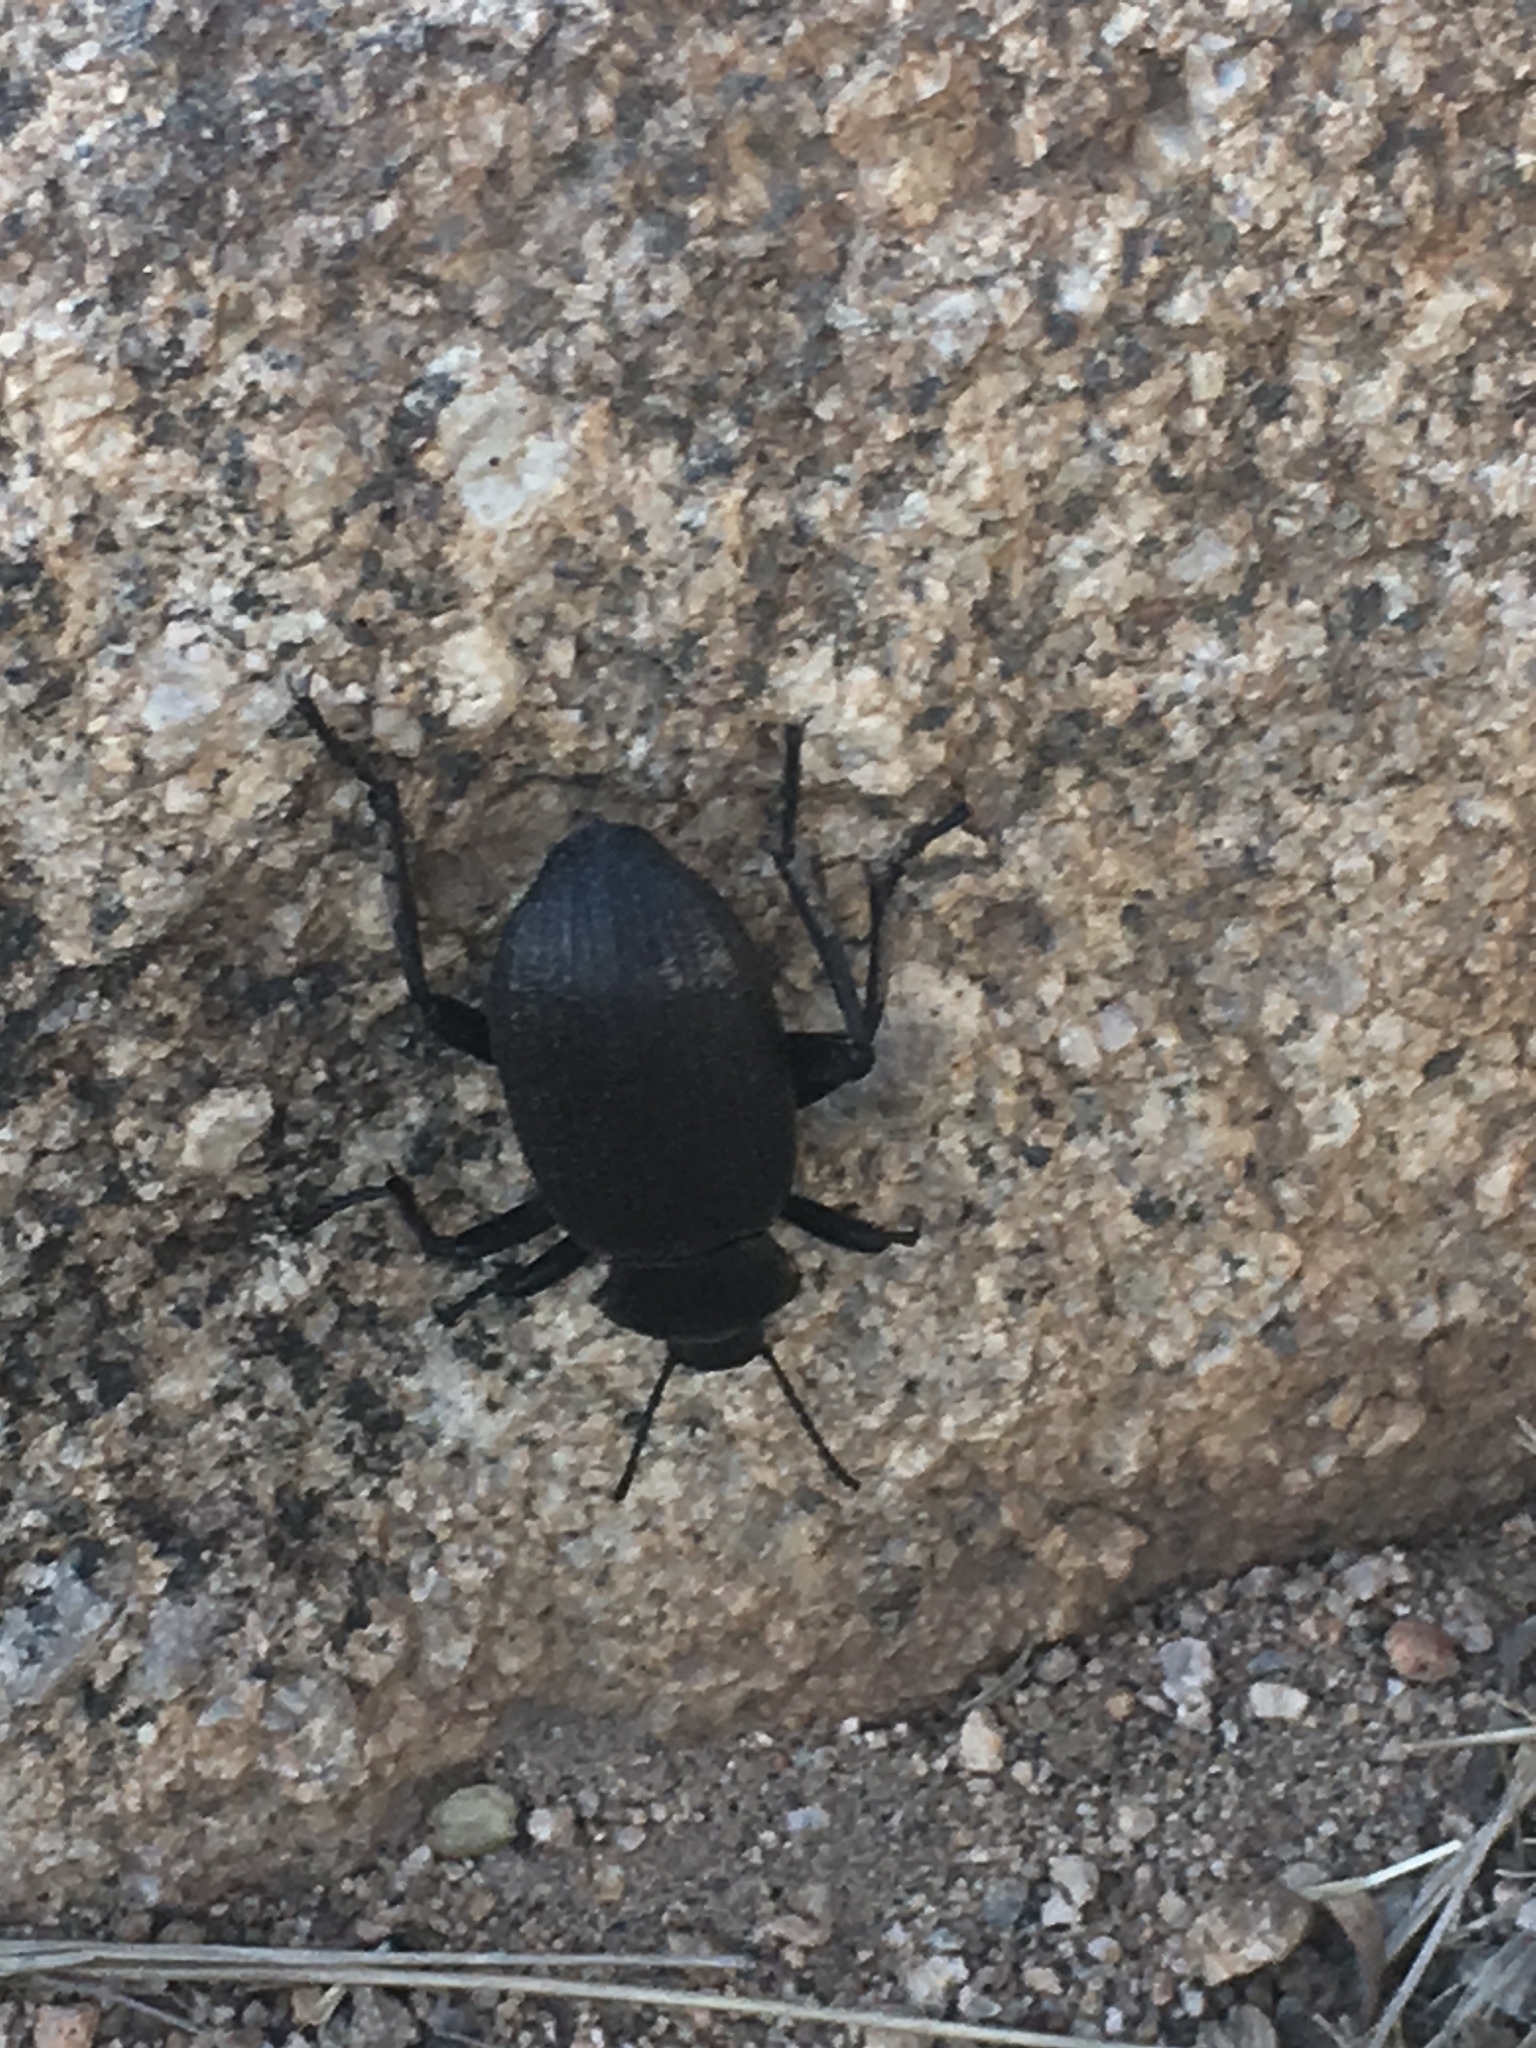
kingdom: Animalia
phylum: Arthropoda
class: Insecta
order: Coleoptera
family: Tenebrionidae
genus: Eleodes
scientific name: Eleodes obscura
